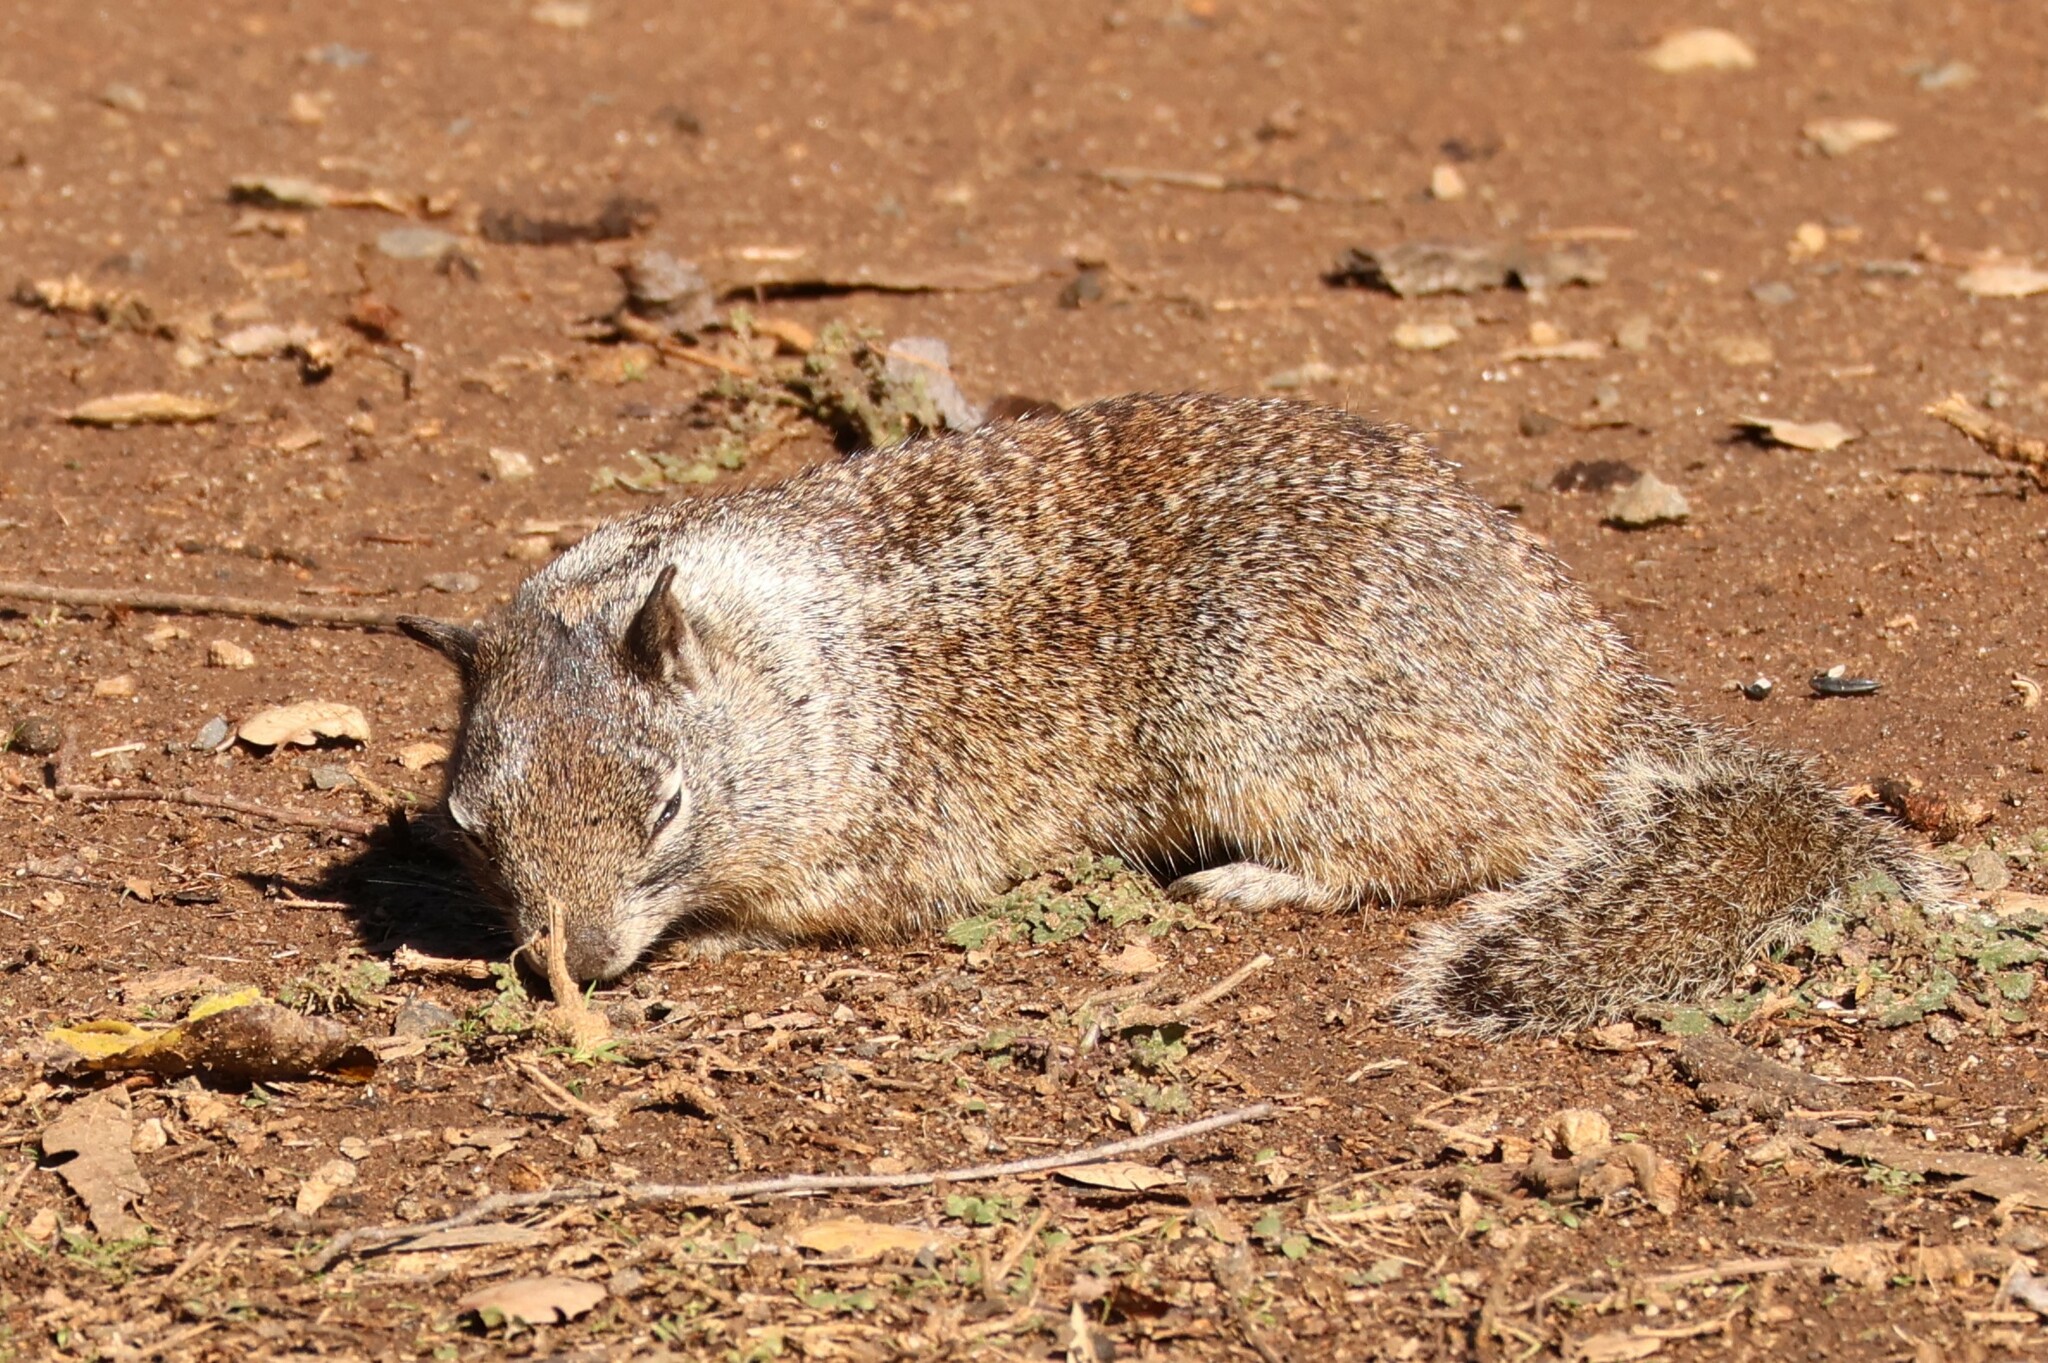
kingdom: Animalia
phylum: Chordata
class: Mammalia
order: Rodentia
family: Sciuridae
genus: Otospermophilus
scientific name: Otospermophilus beecheyi
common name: California ground squirrel
